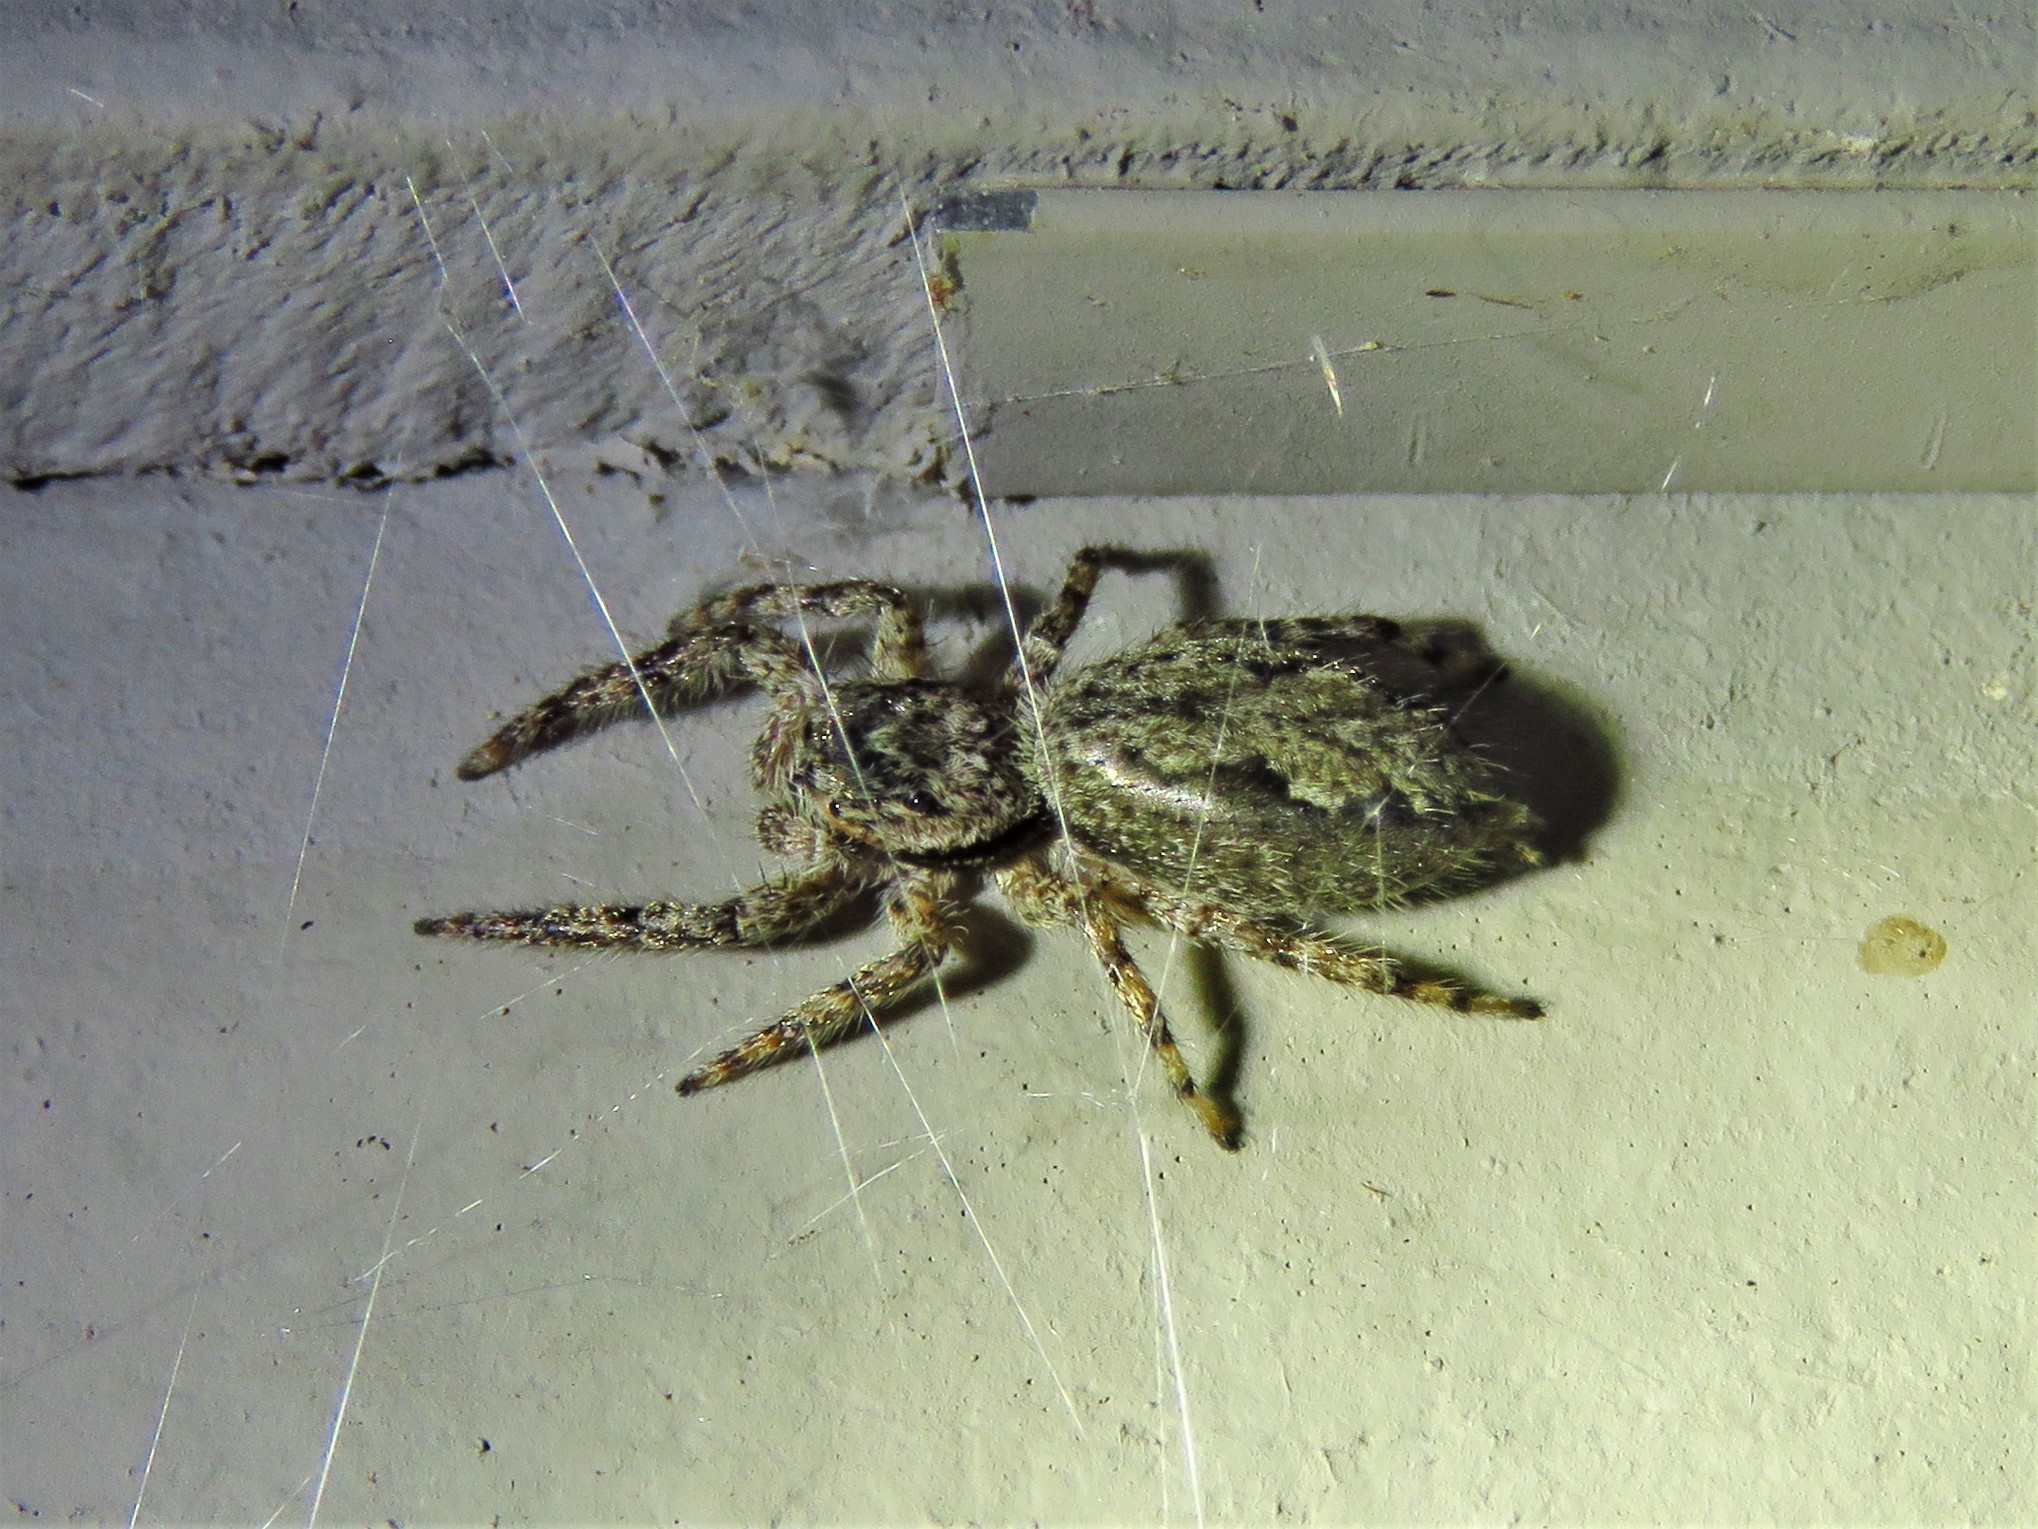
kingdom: Animalia
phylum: Arthropoda
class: Arachnida
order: Araneae
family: Salticidae
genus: Platycryptus
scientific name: Platycryptus undatus
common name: Tan jumping spider
